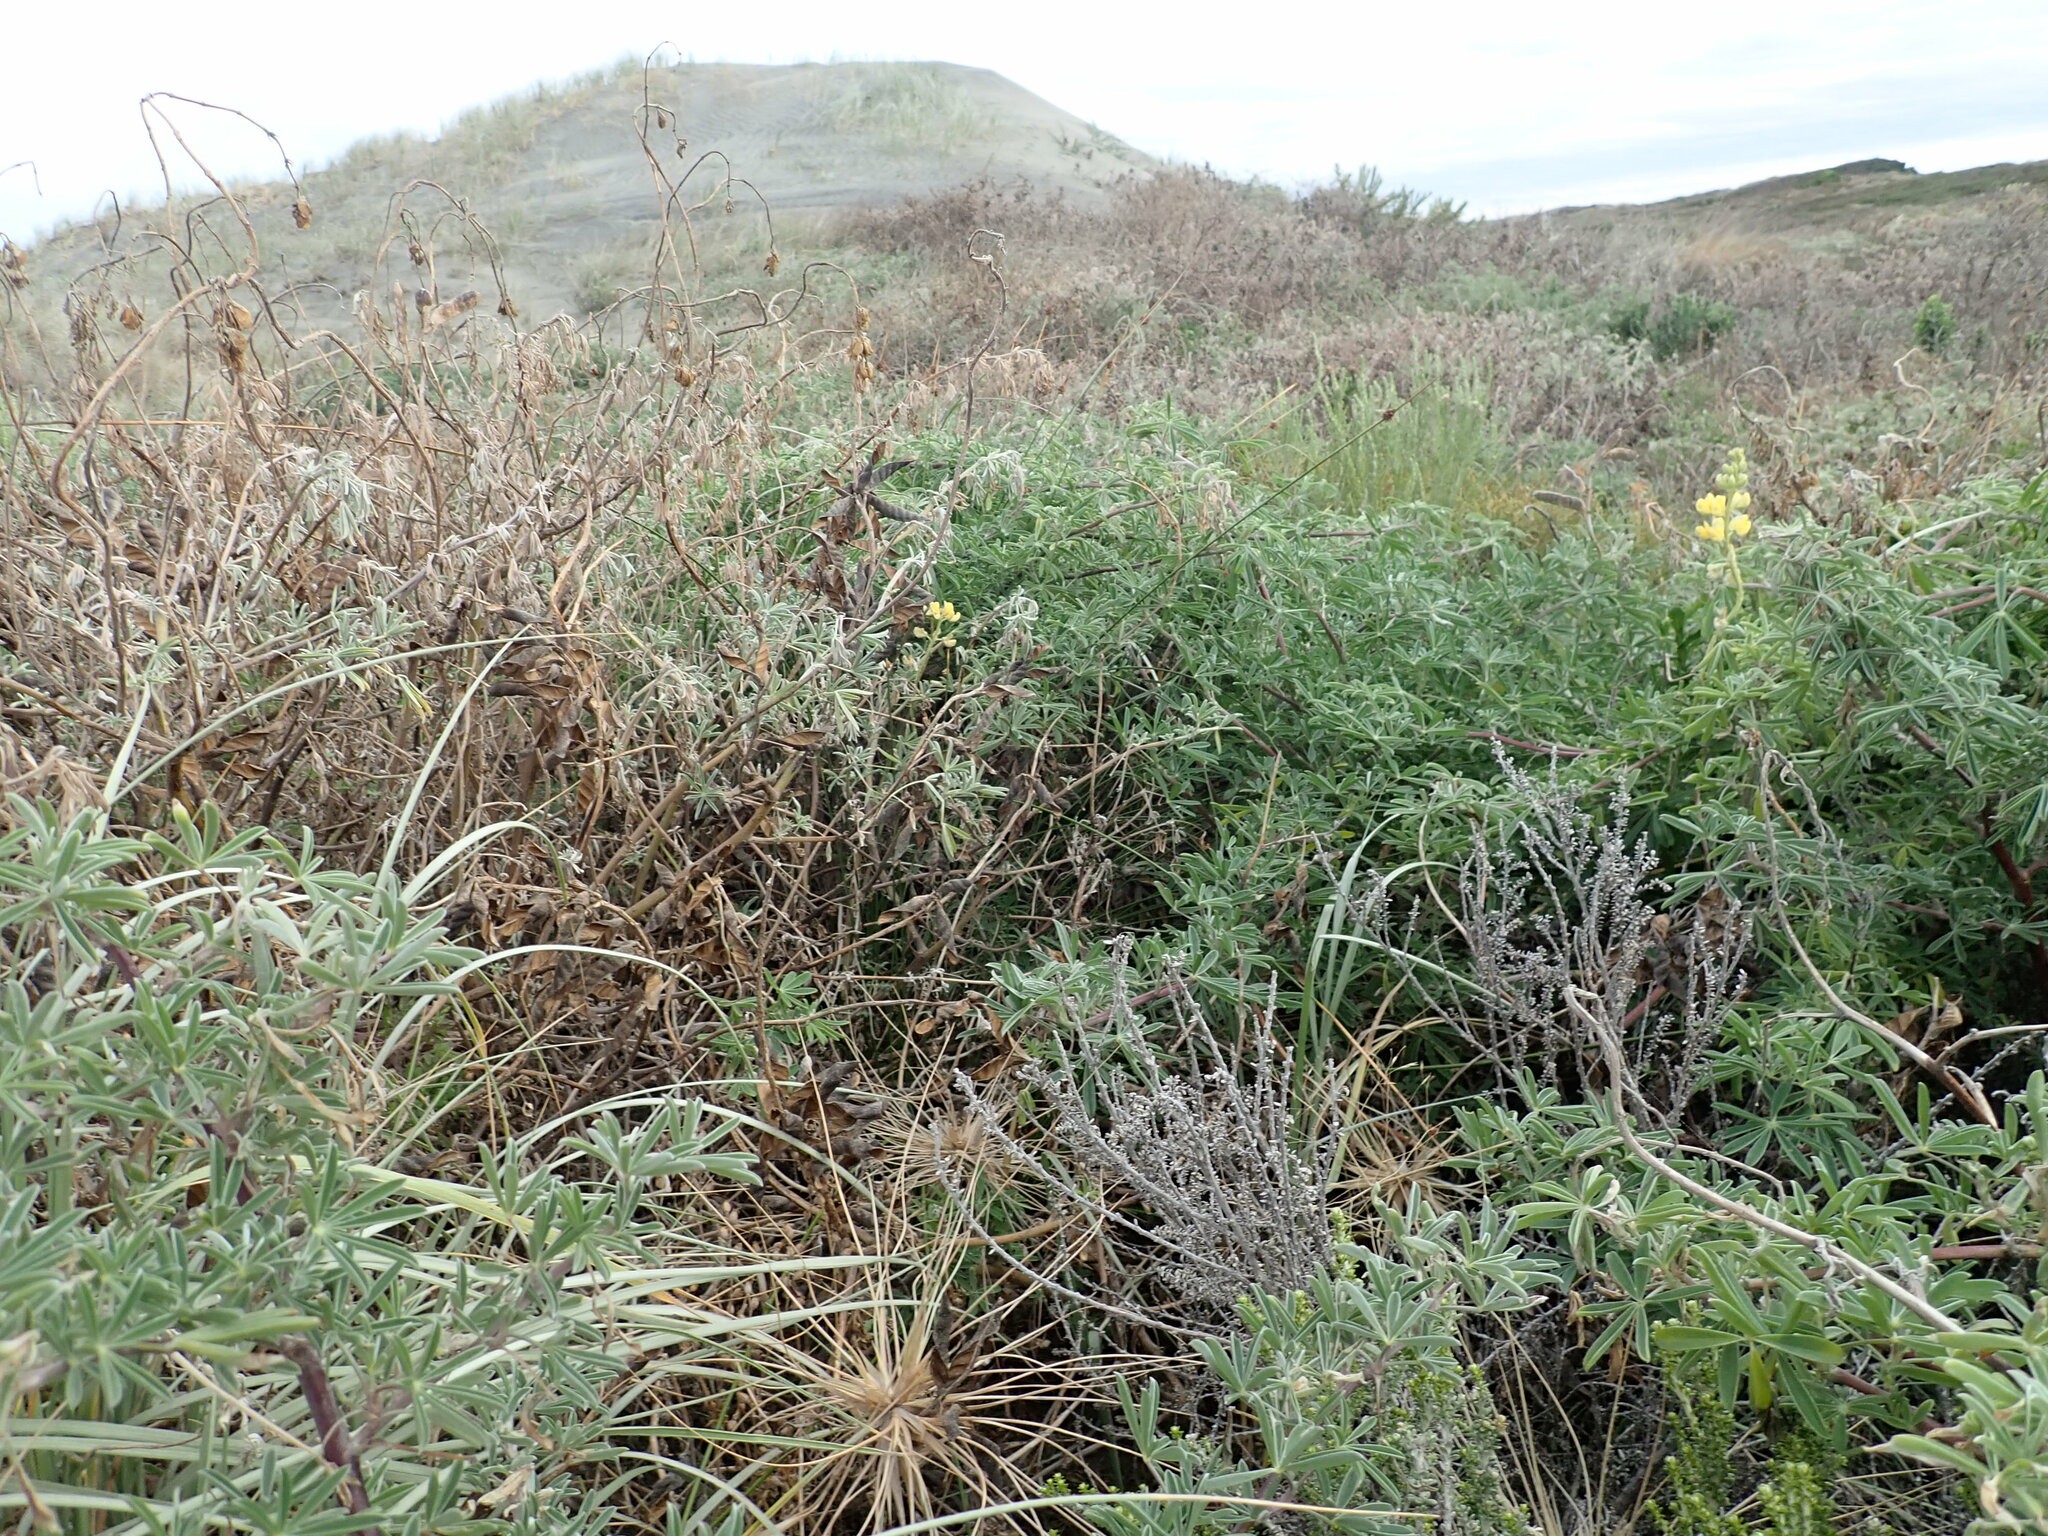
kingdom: Plantae
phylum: Tracheophyta
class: Magnoliopsida
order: Fabales
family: Fabaceae
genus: Lupinus
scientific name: Lupinus arboreus
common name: Yellow bush lupine
